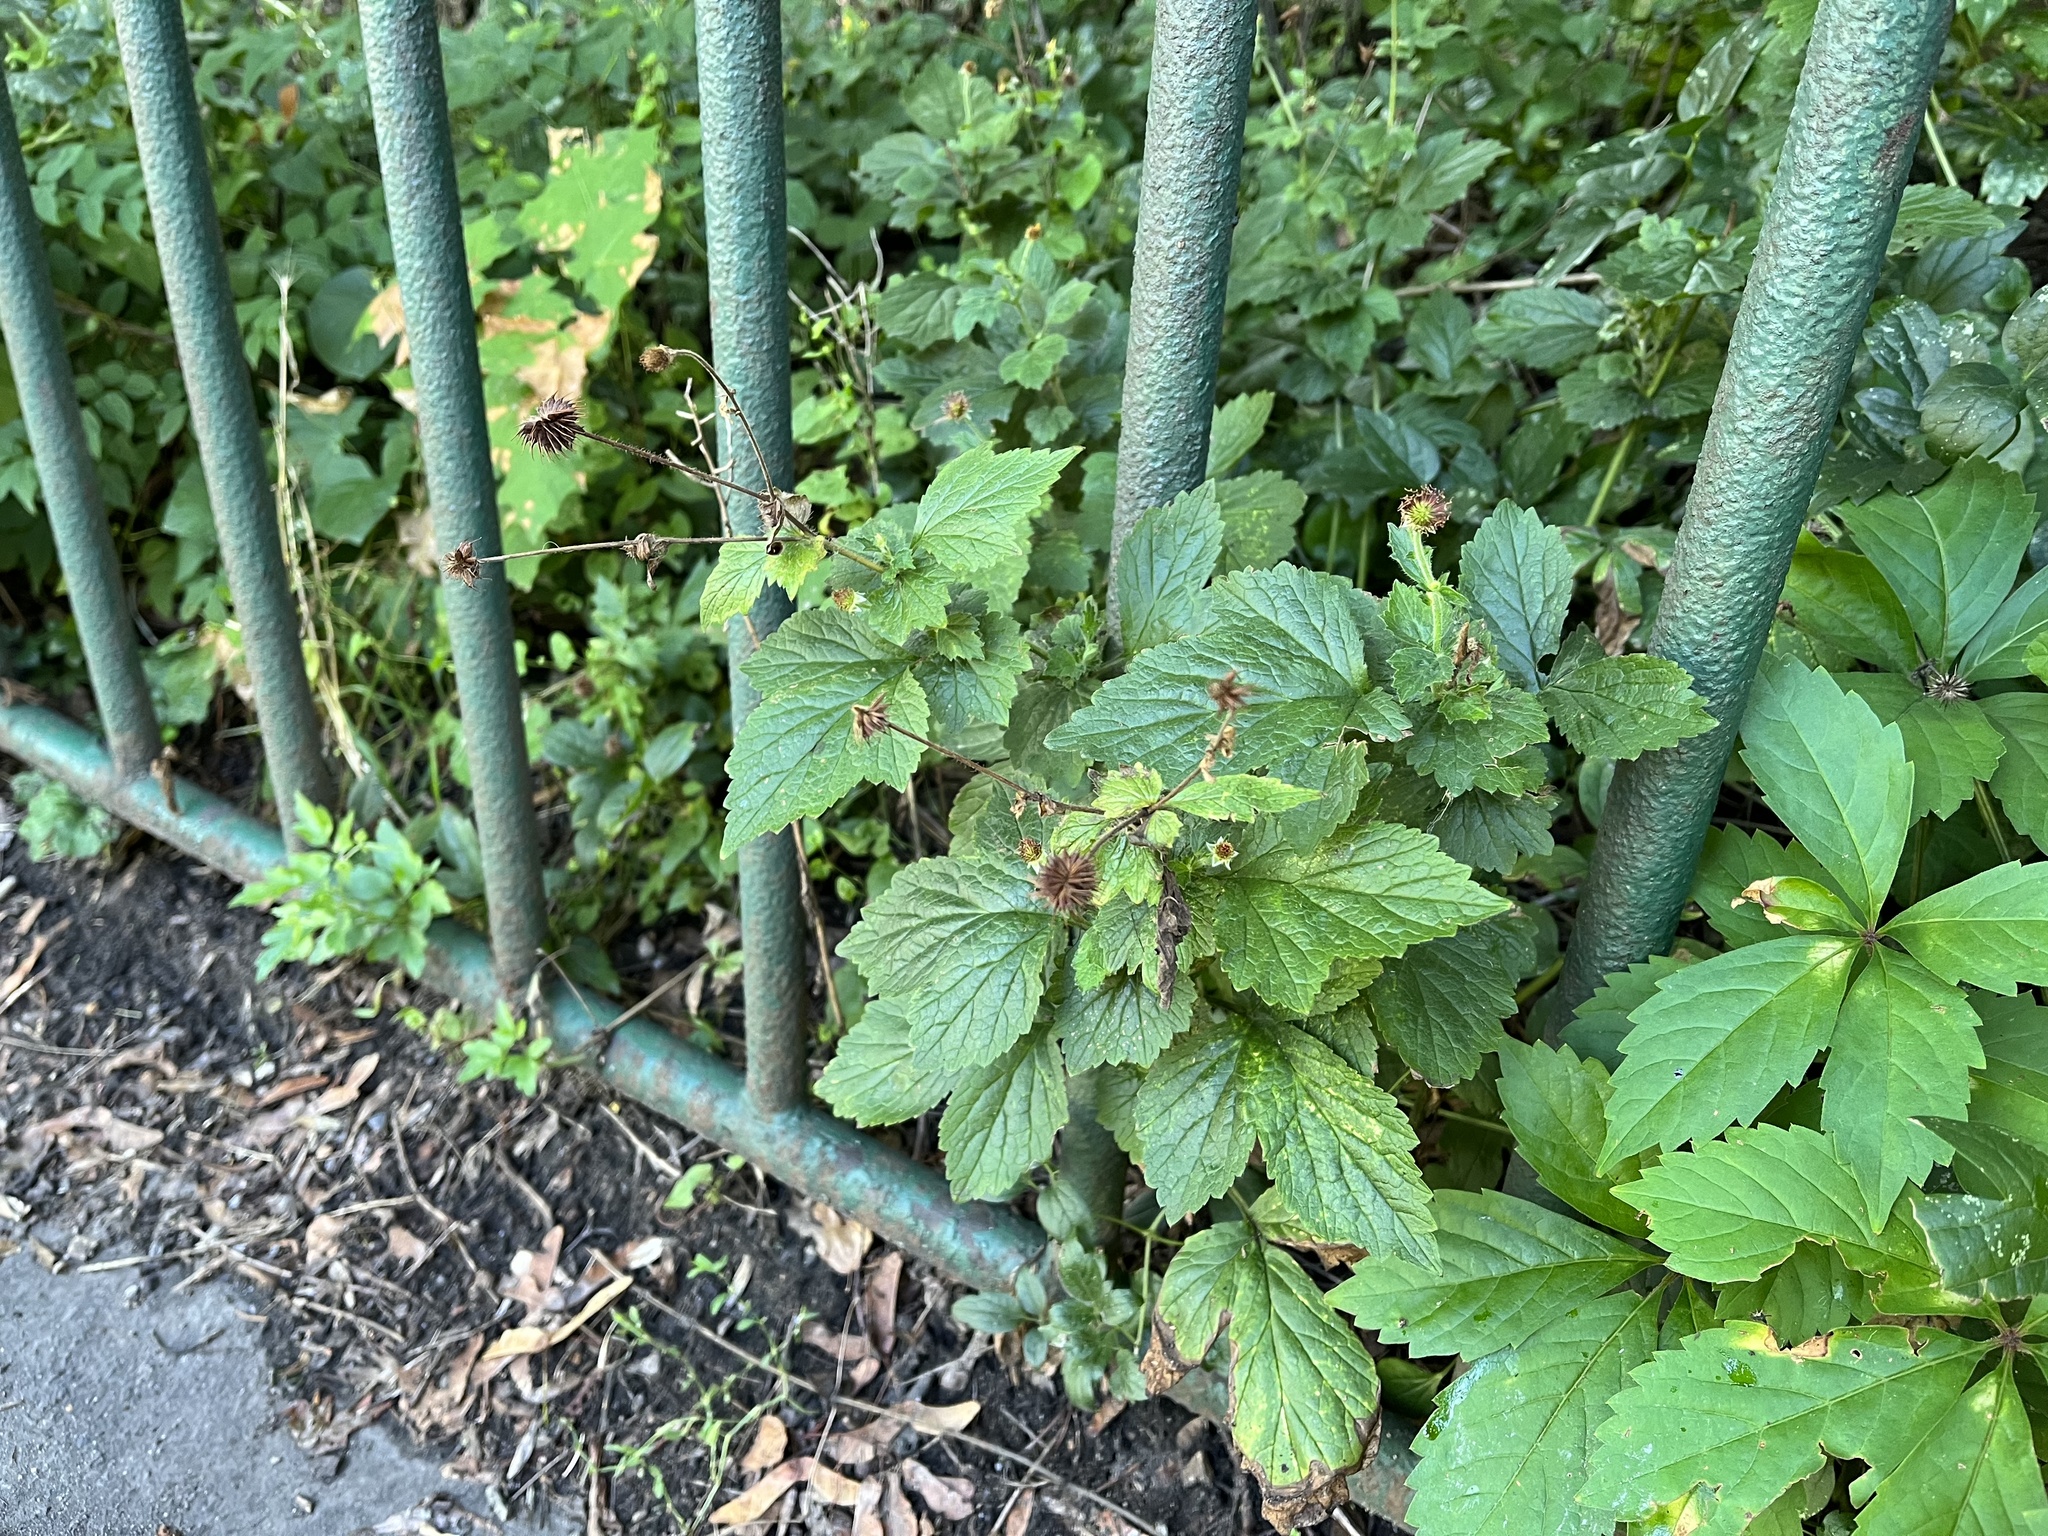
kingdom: Plantae
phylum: Tracheophyta
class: Magnoliopsida
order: Rosales
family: Rosaceae
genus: Geum
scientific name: Geum urbanum
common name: Wood avens
